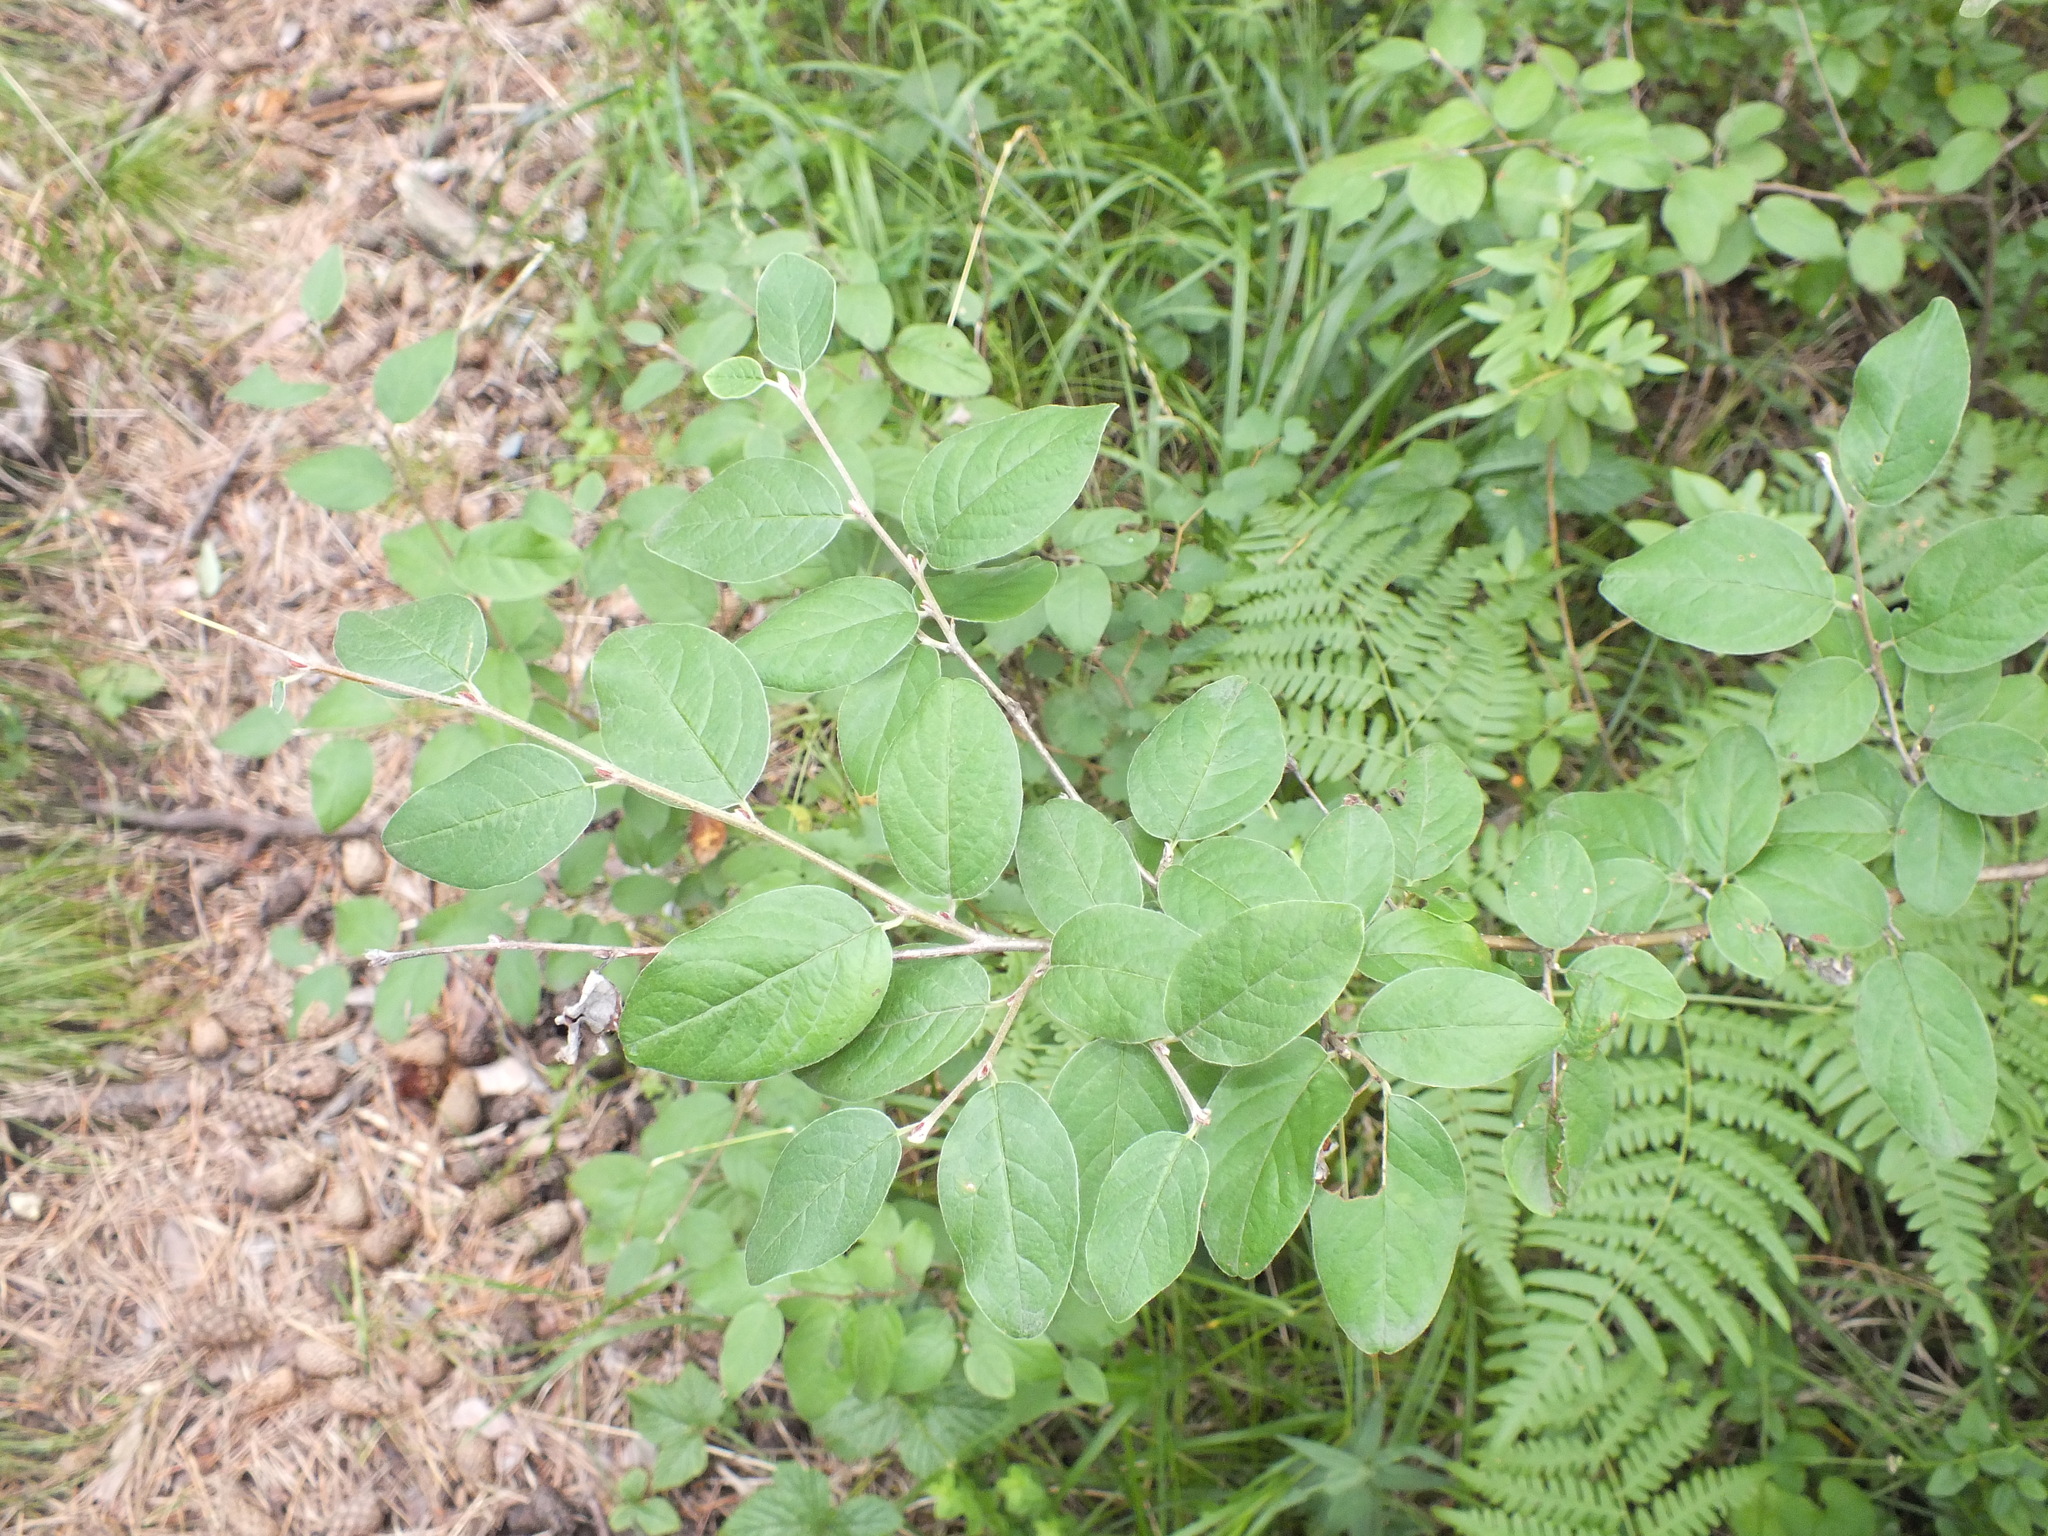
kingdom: Plantae
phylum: Tracheophyta
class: Magnoliopsida
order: Rosales
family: Rosaceae
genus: Cotoneaster
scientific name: Cotoneaster melanocarpus
